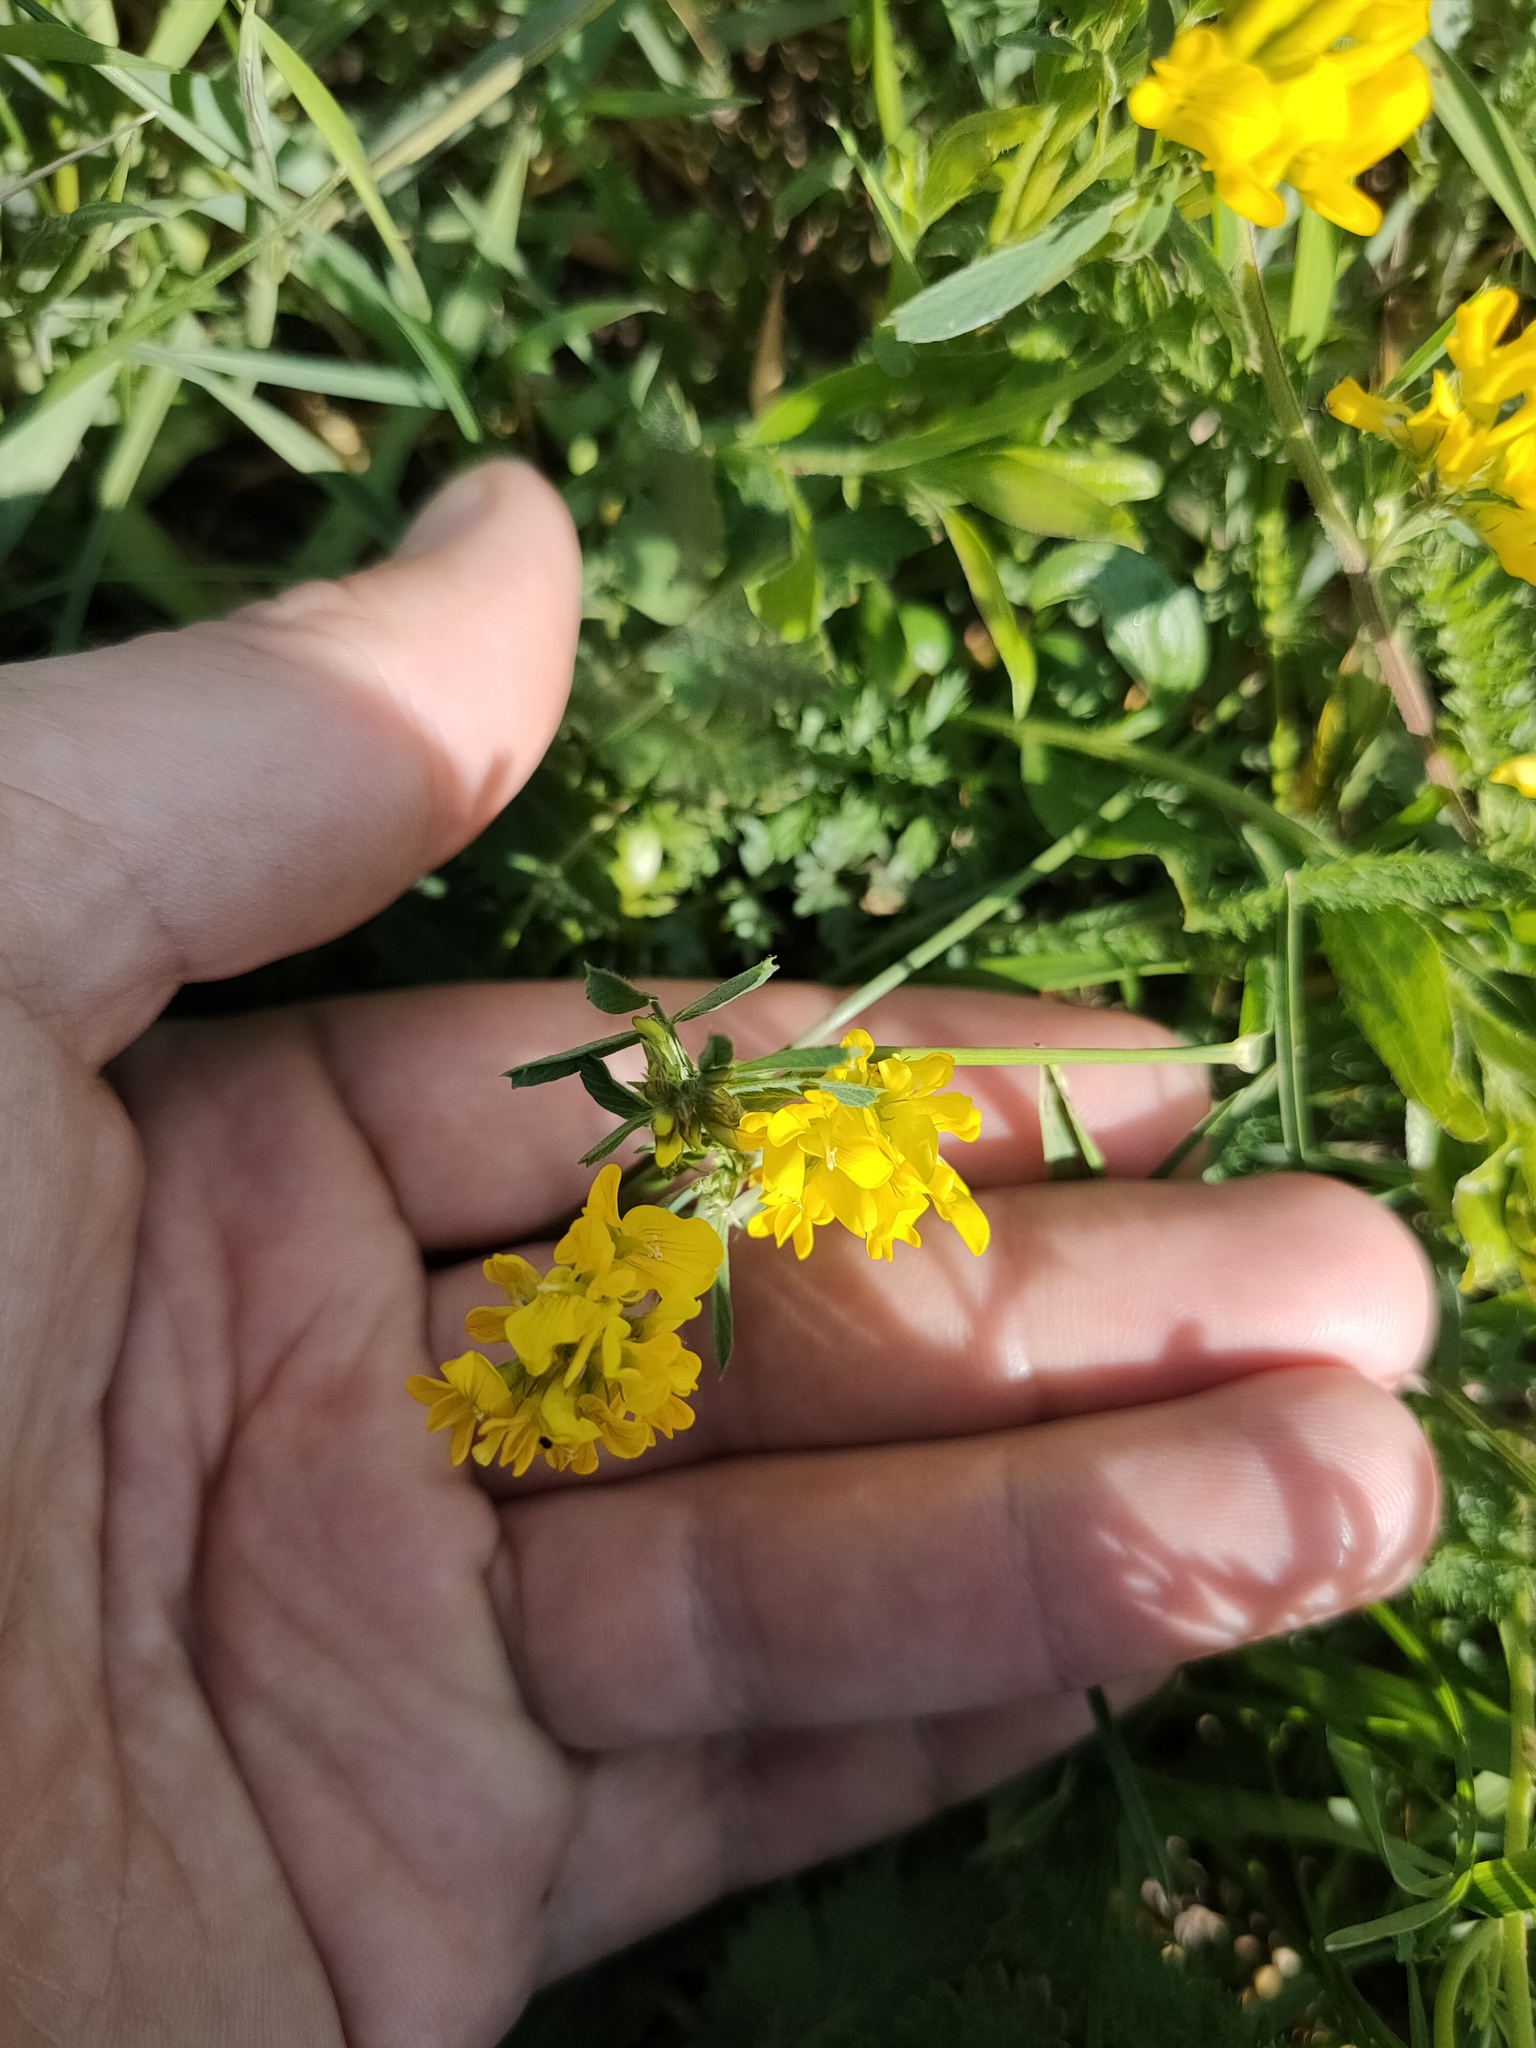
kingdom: Plantae
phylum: Tracheophyta
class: Magnoliopsida
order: Fabales
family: Fabaceae
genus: Medicago
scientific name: Medicago falcata
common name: Sickle medick
